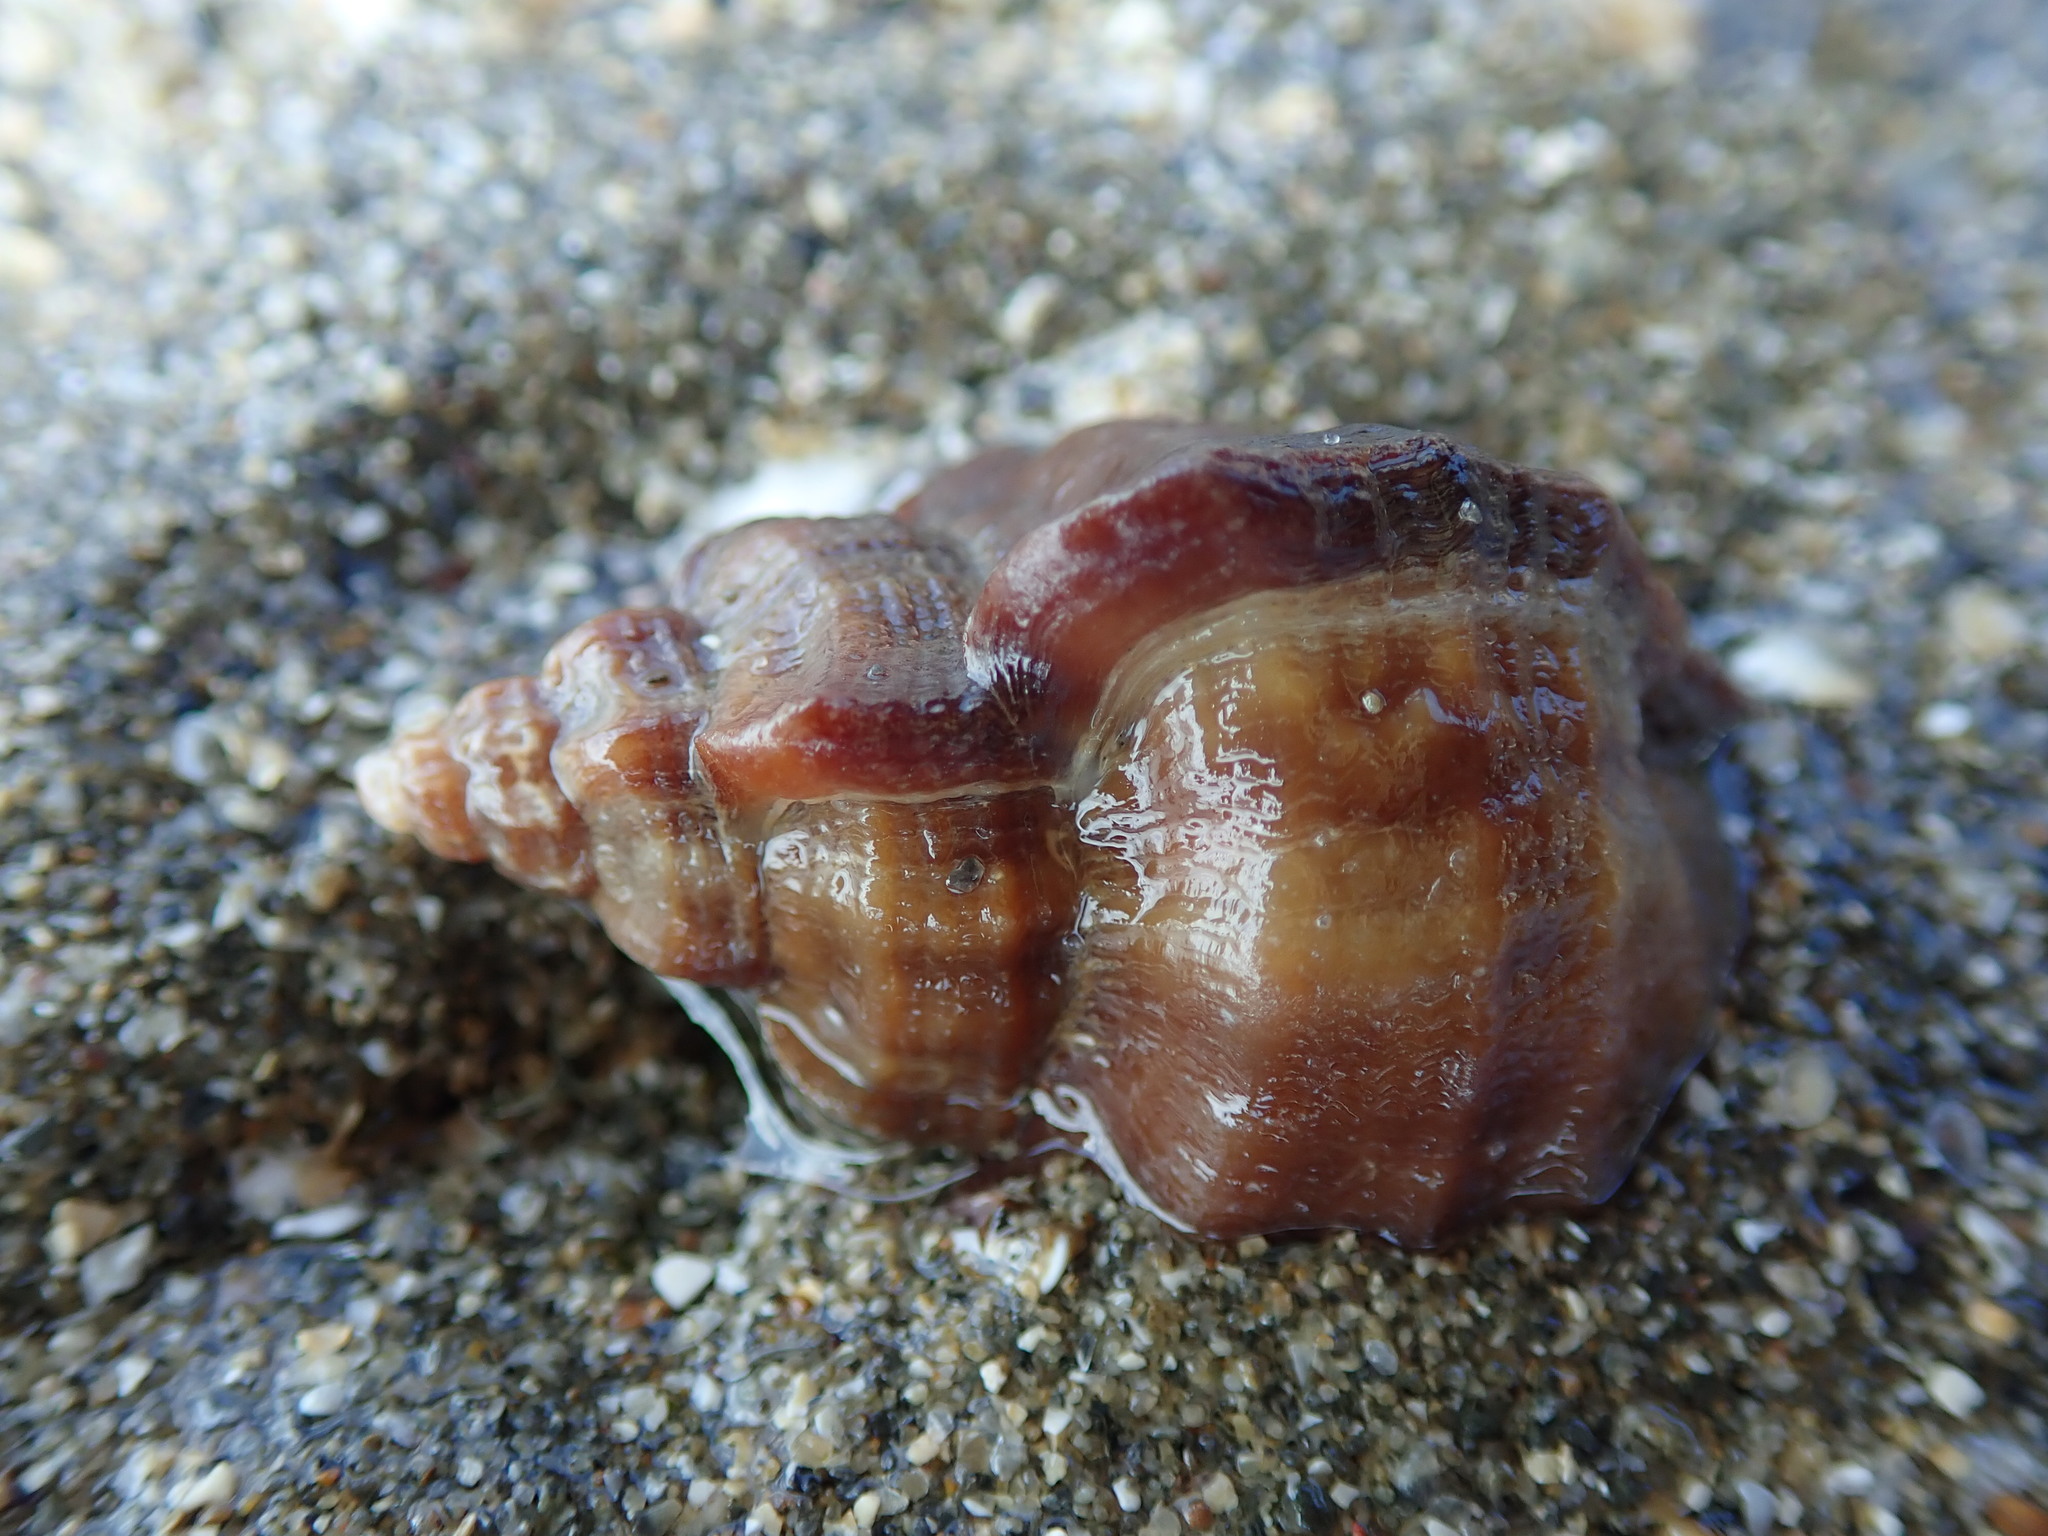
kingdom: Animalia
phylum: Mollusca
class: Gastropoda
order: Neogastropoda
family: Muricidae
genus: Ocenebra
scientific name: Ocenebra erinaceus
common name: European sting winkle
